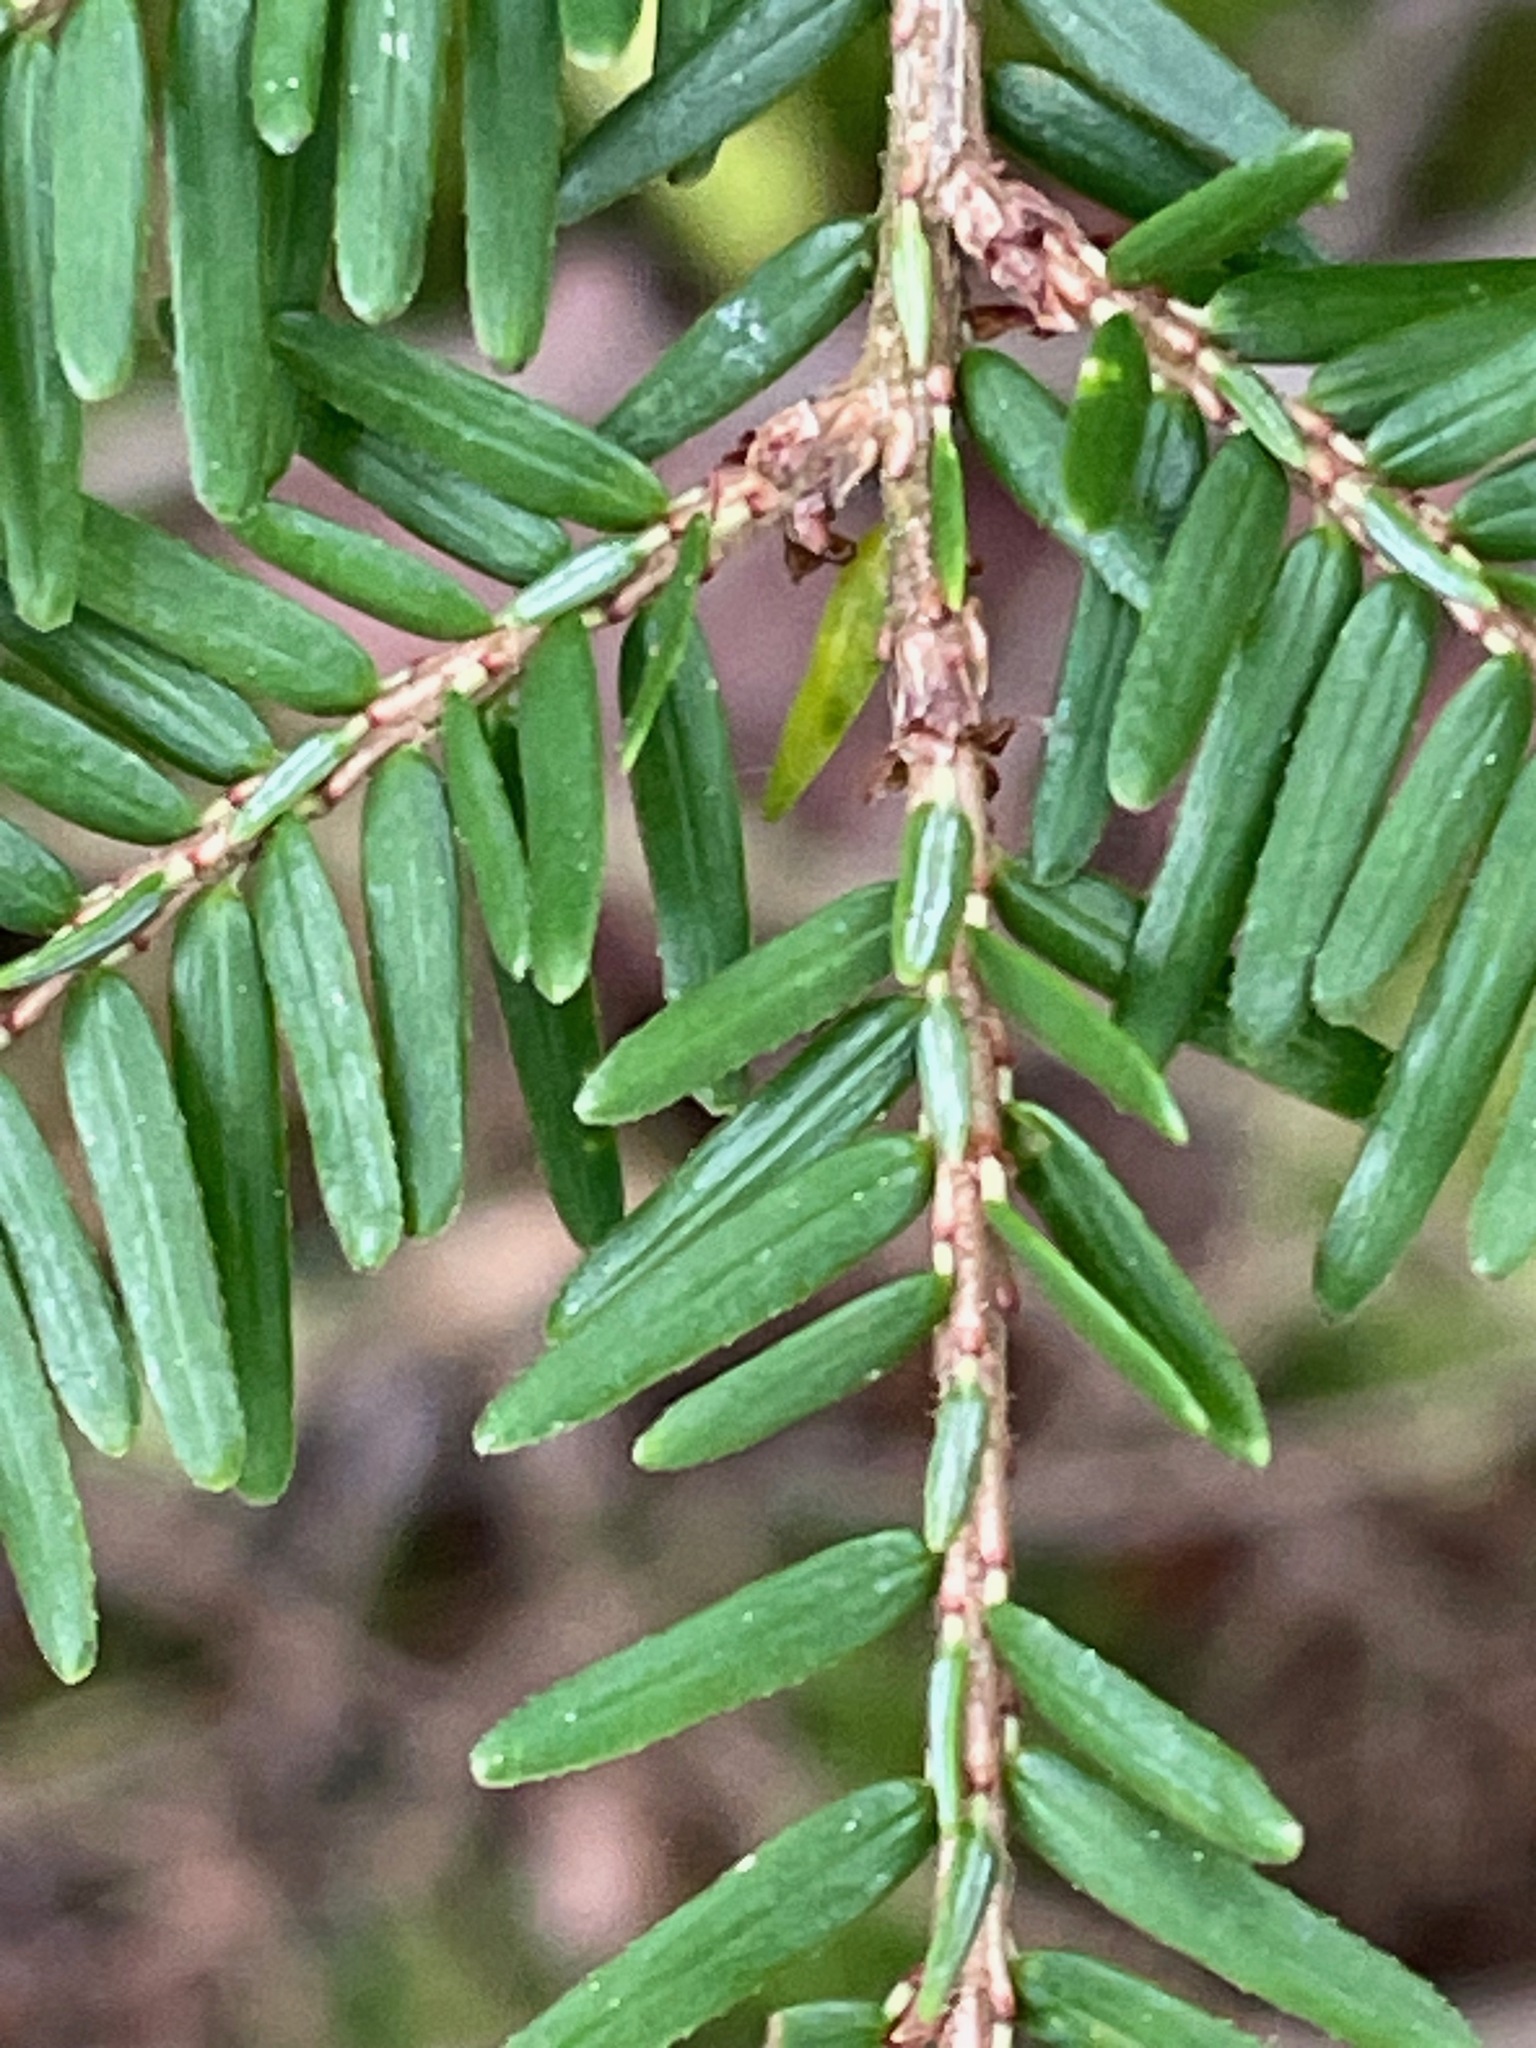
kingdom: Plantae
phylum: Tracheophyta
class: Pinopsida
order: Pinales
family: Pinaceae
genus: Tsuga
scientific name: Tsuga canadensis
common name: Eastern hemlock
